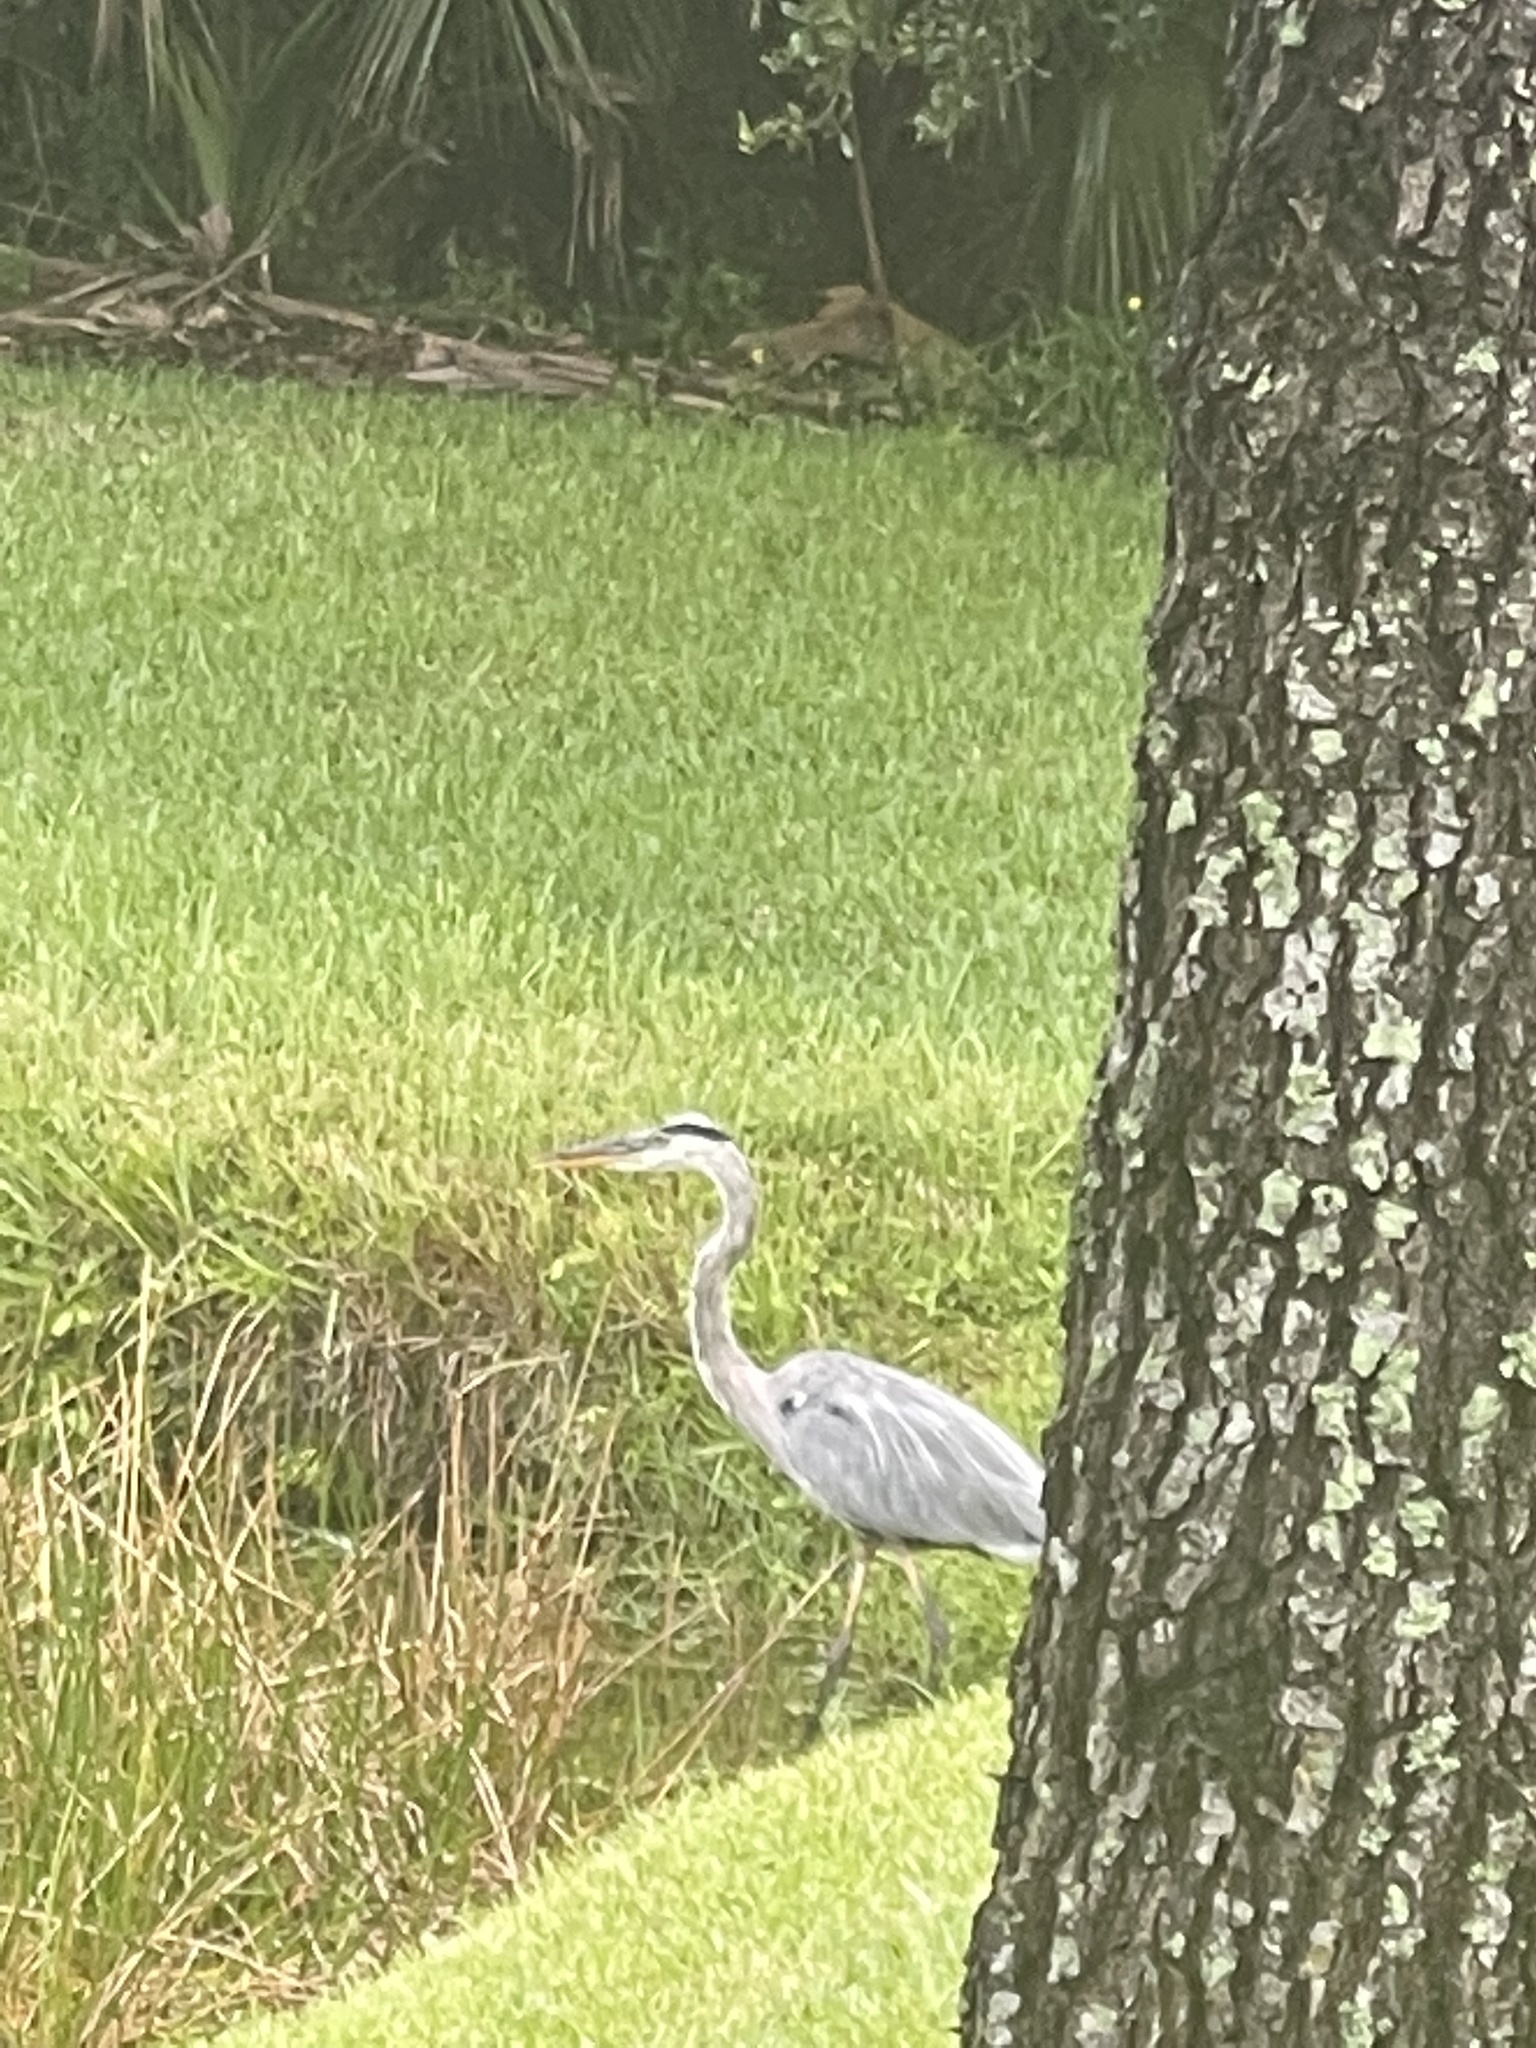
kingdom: Animalia
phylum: Chordata
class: Aves
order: Pelecaniformes
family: Ardeidae
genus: Ardea
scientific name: Ardea herodias
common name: Great blue heron
